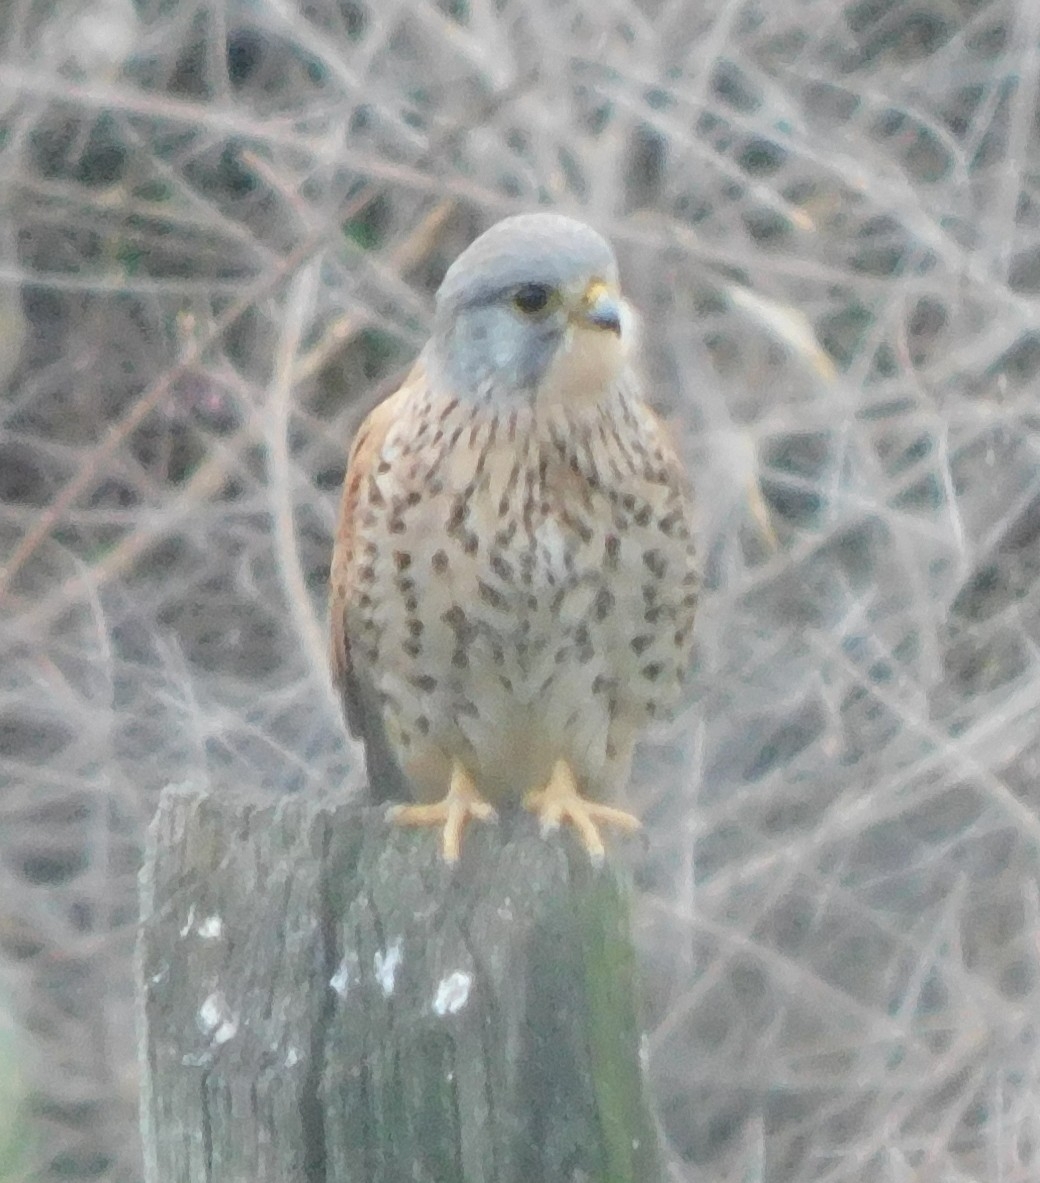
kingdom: Animalia
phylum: Chordata
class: Aves
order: Falconiformes
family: Falconidae
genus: Falco
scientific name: Falco tinnunculus
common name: Common kestrel
